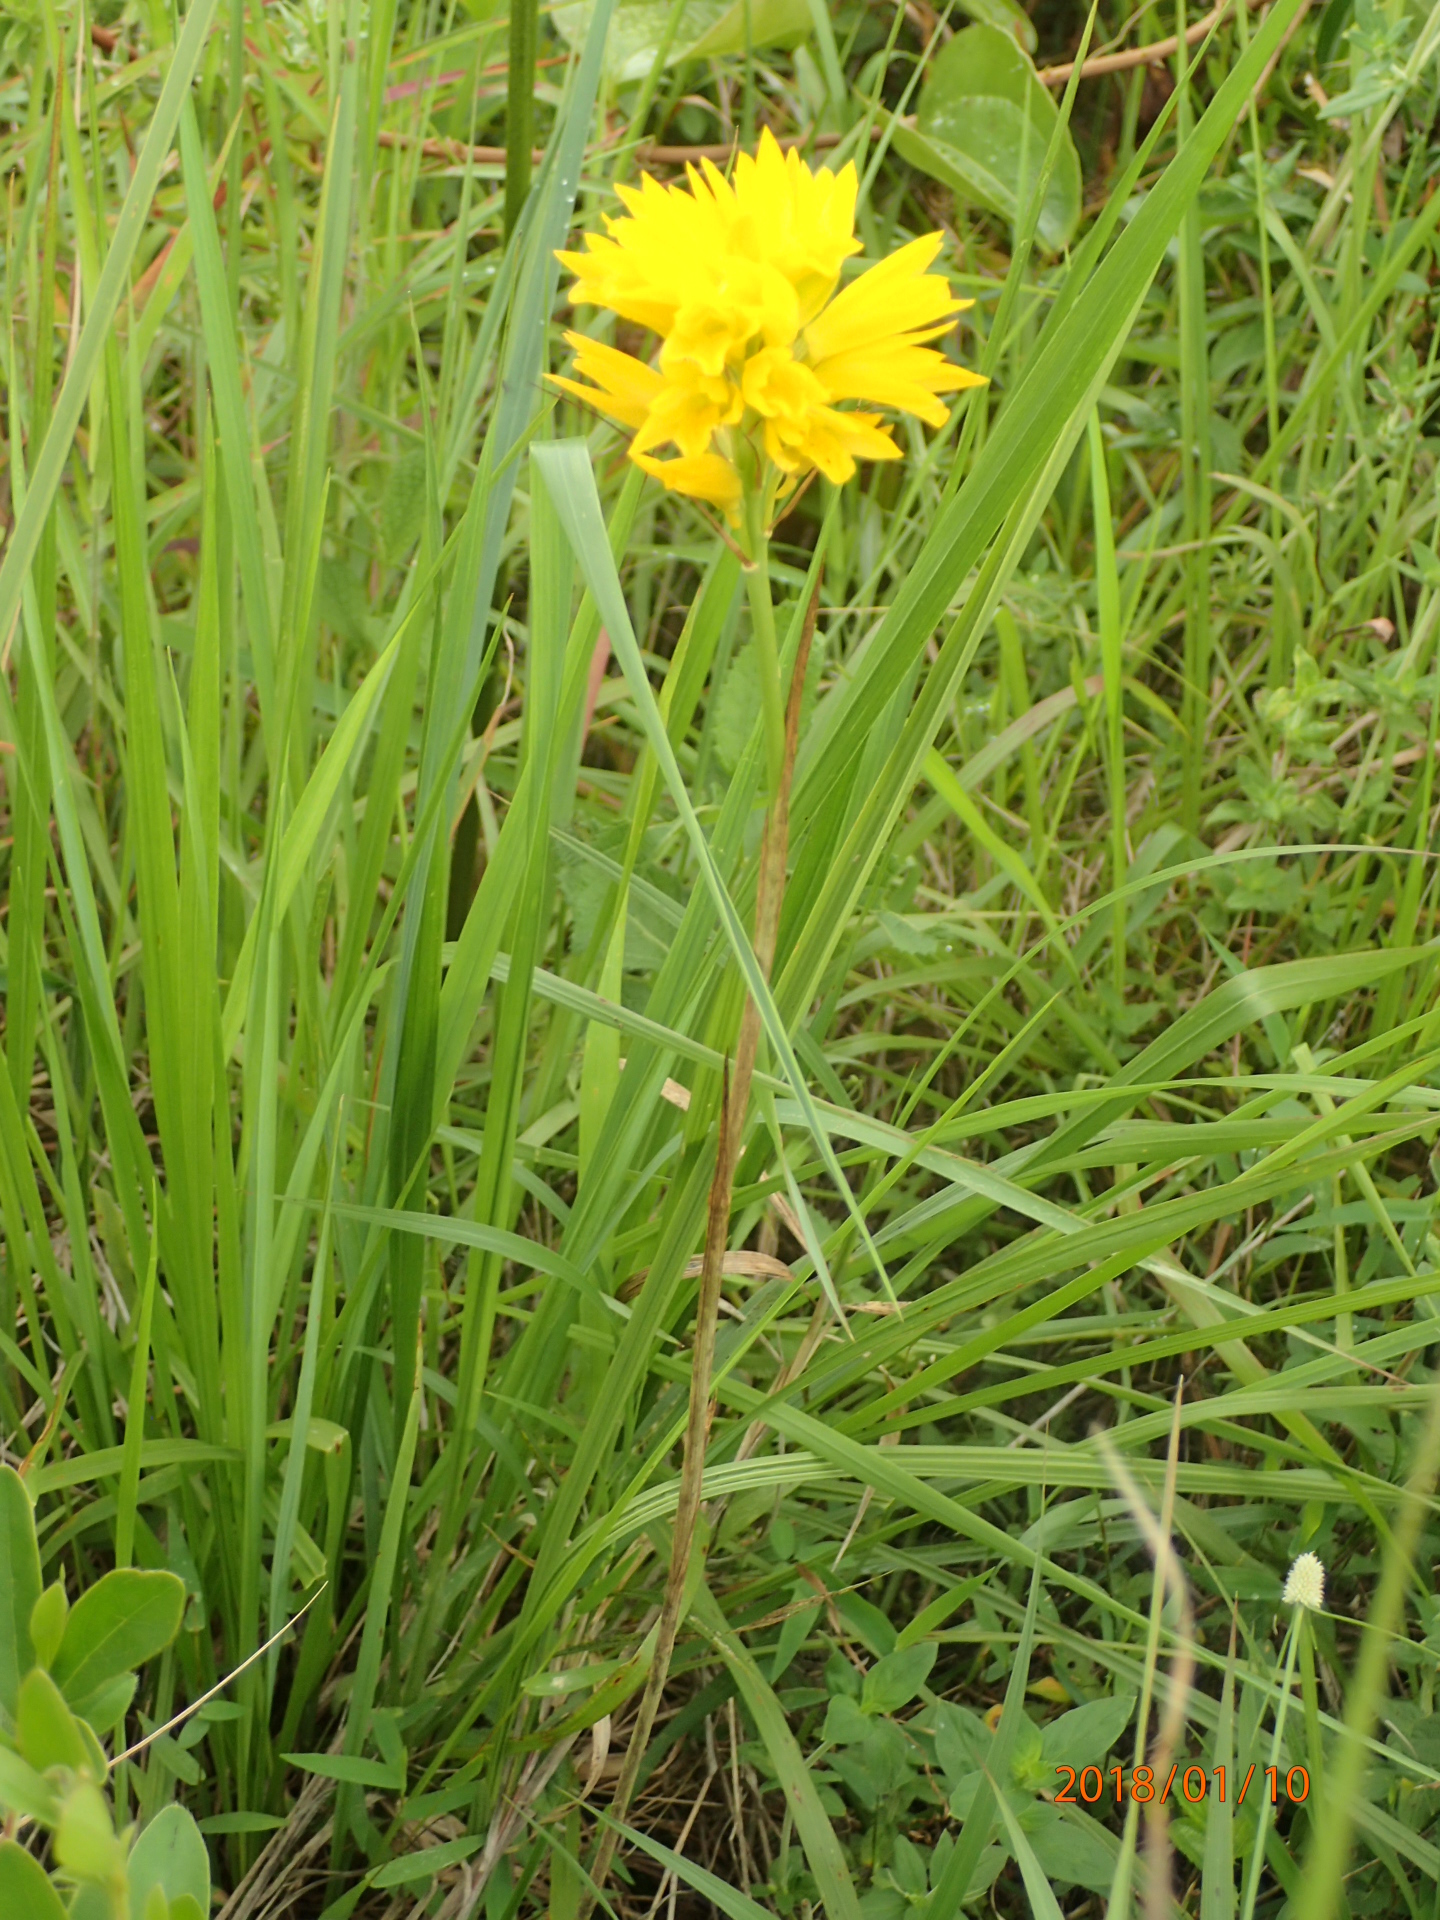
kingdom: Plantae
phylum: Tracheophyta
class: Liliopsida
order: Asparagales
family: Orchidaceae
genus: Eulophia
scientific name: Eulophia ensata
